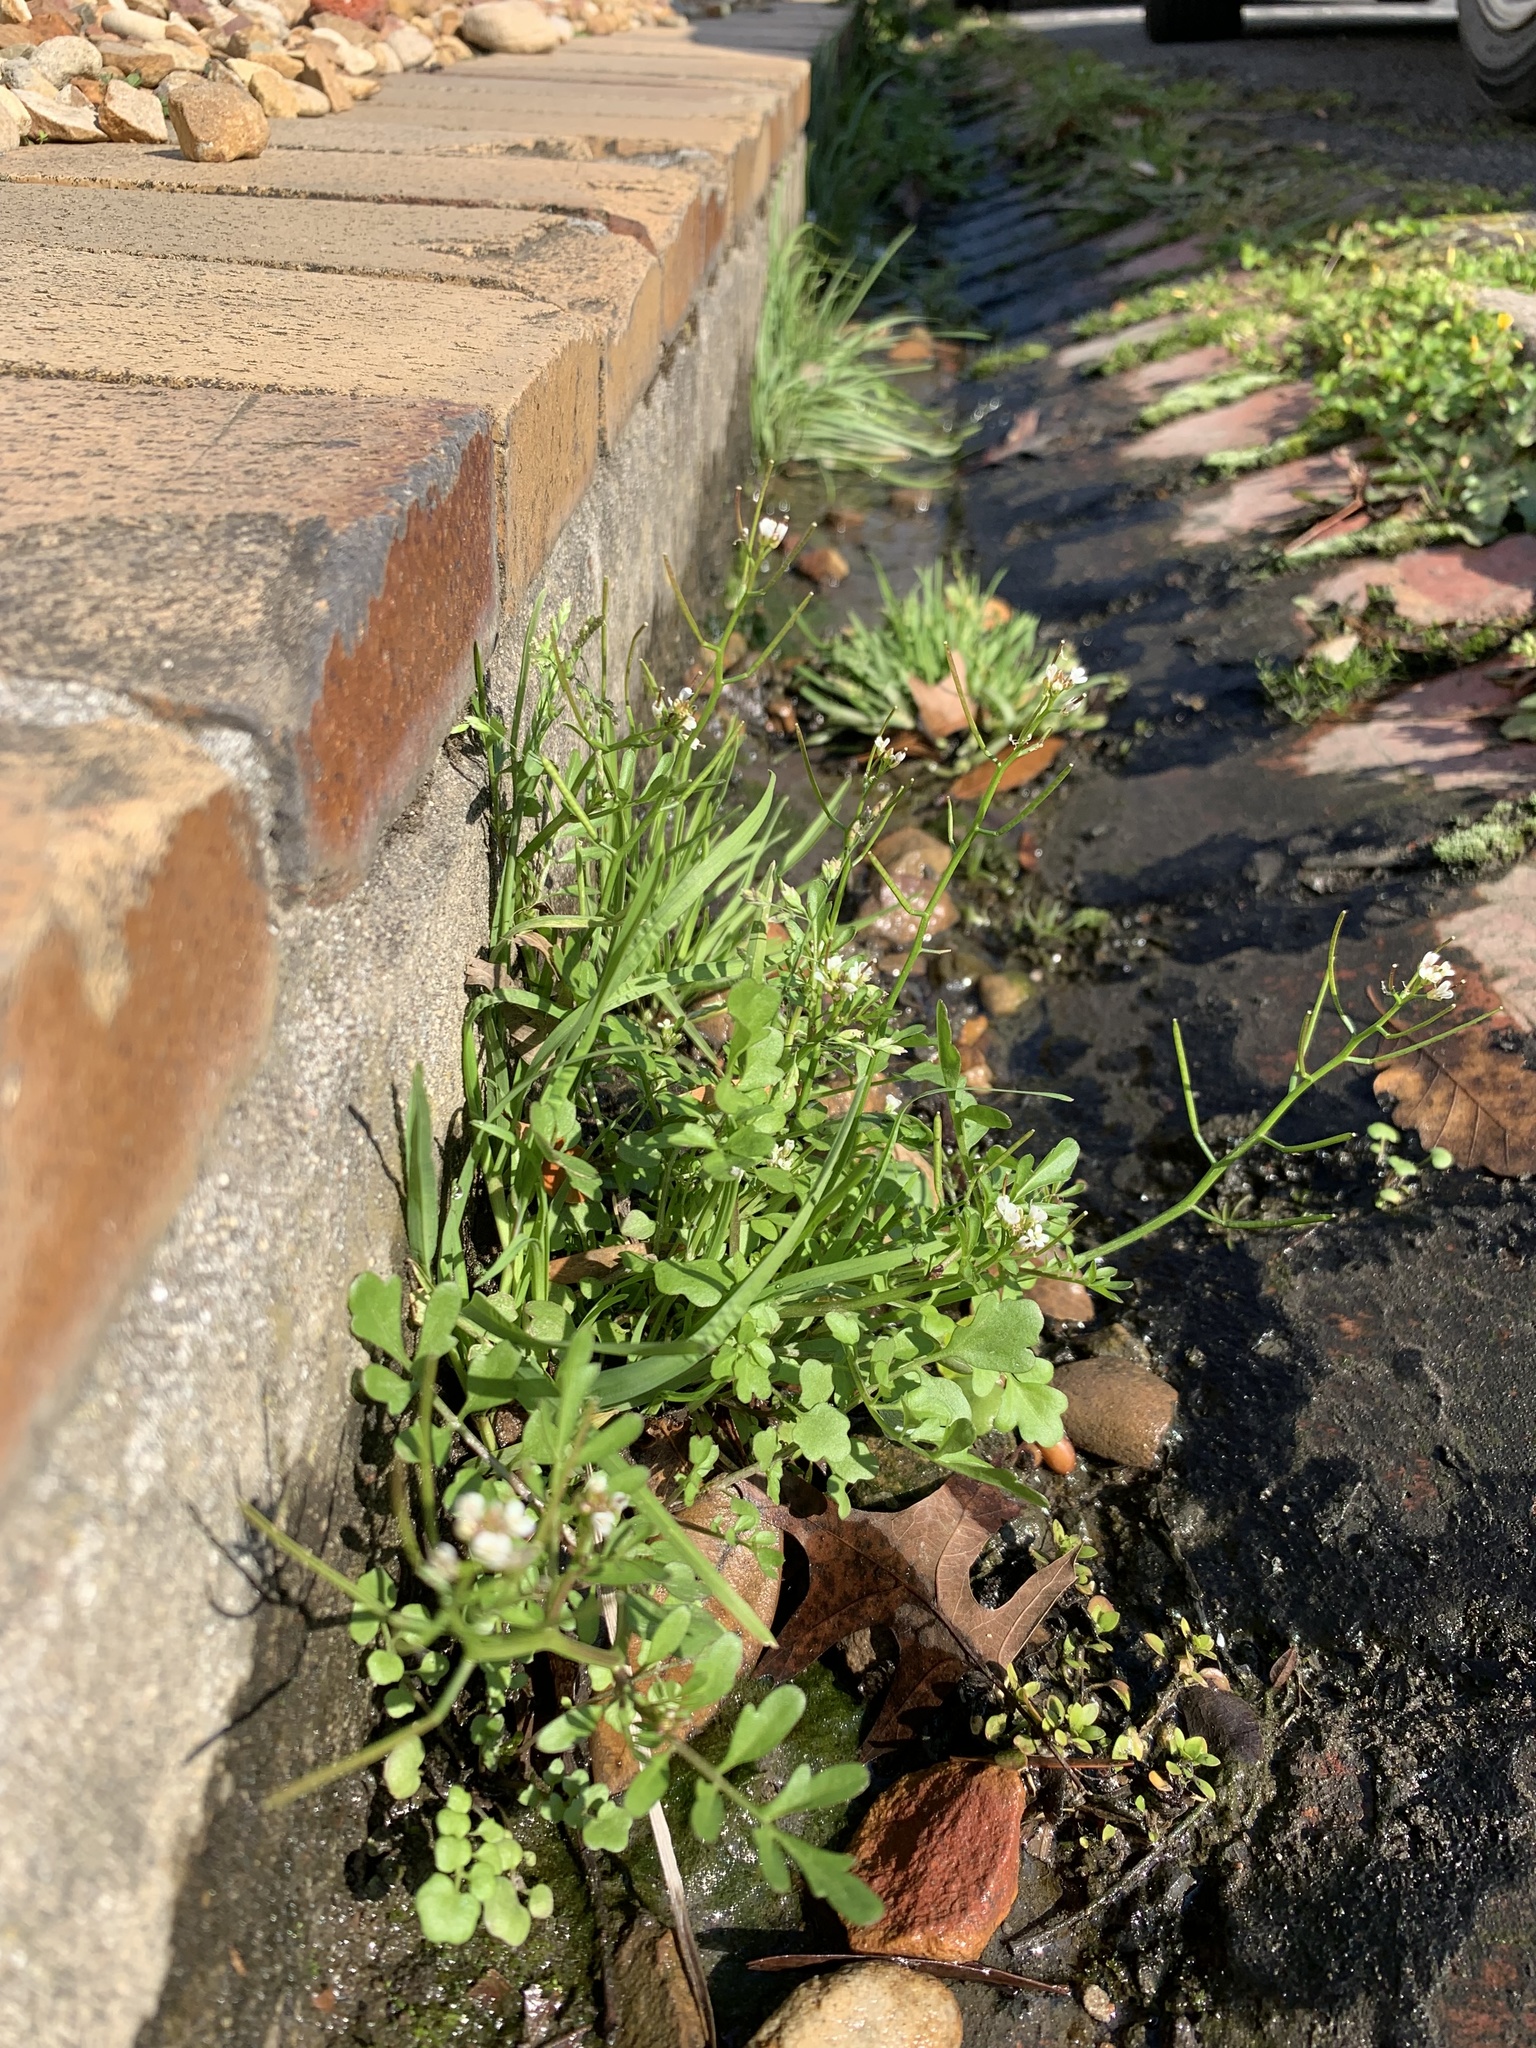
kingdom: Plantae
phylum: Tracheophyta
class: Magnoliopsida
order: Brassicales
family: Brassicaceae
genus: Cardamine
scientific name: Cardamine occulta
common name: Asian wavy bittercress
